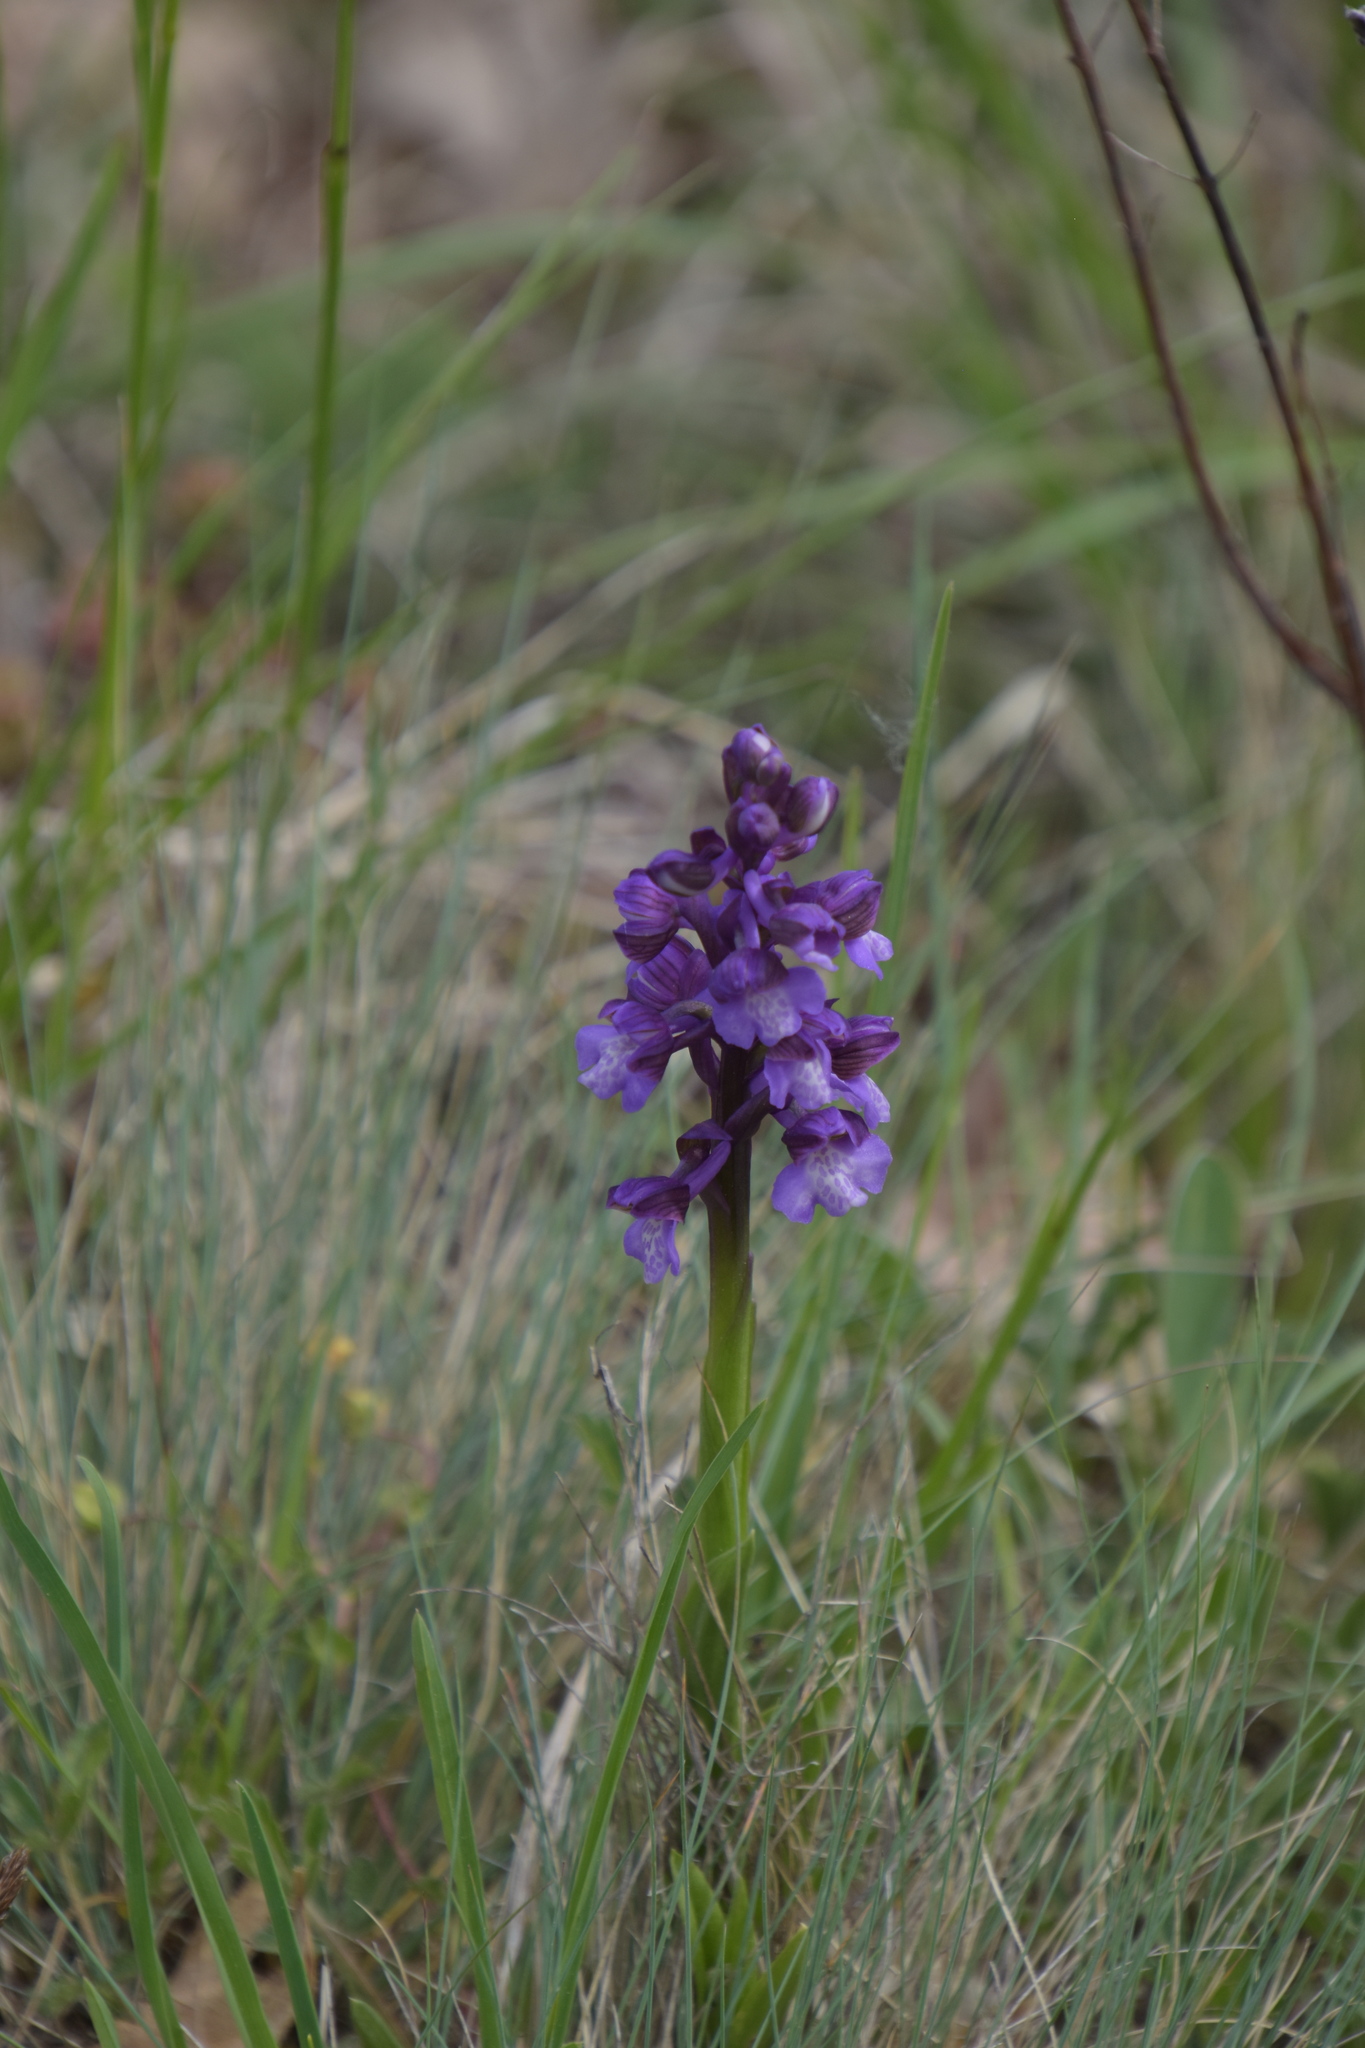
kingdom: Plantae
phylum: Tracheophyta
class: Liliopsida
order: Asparagales
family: Orchidaceae
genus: Anacamptis
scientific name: Anacamptis morio
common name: Green-winged orchid
